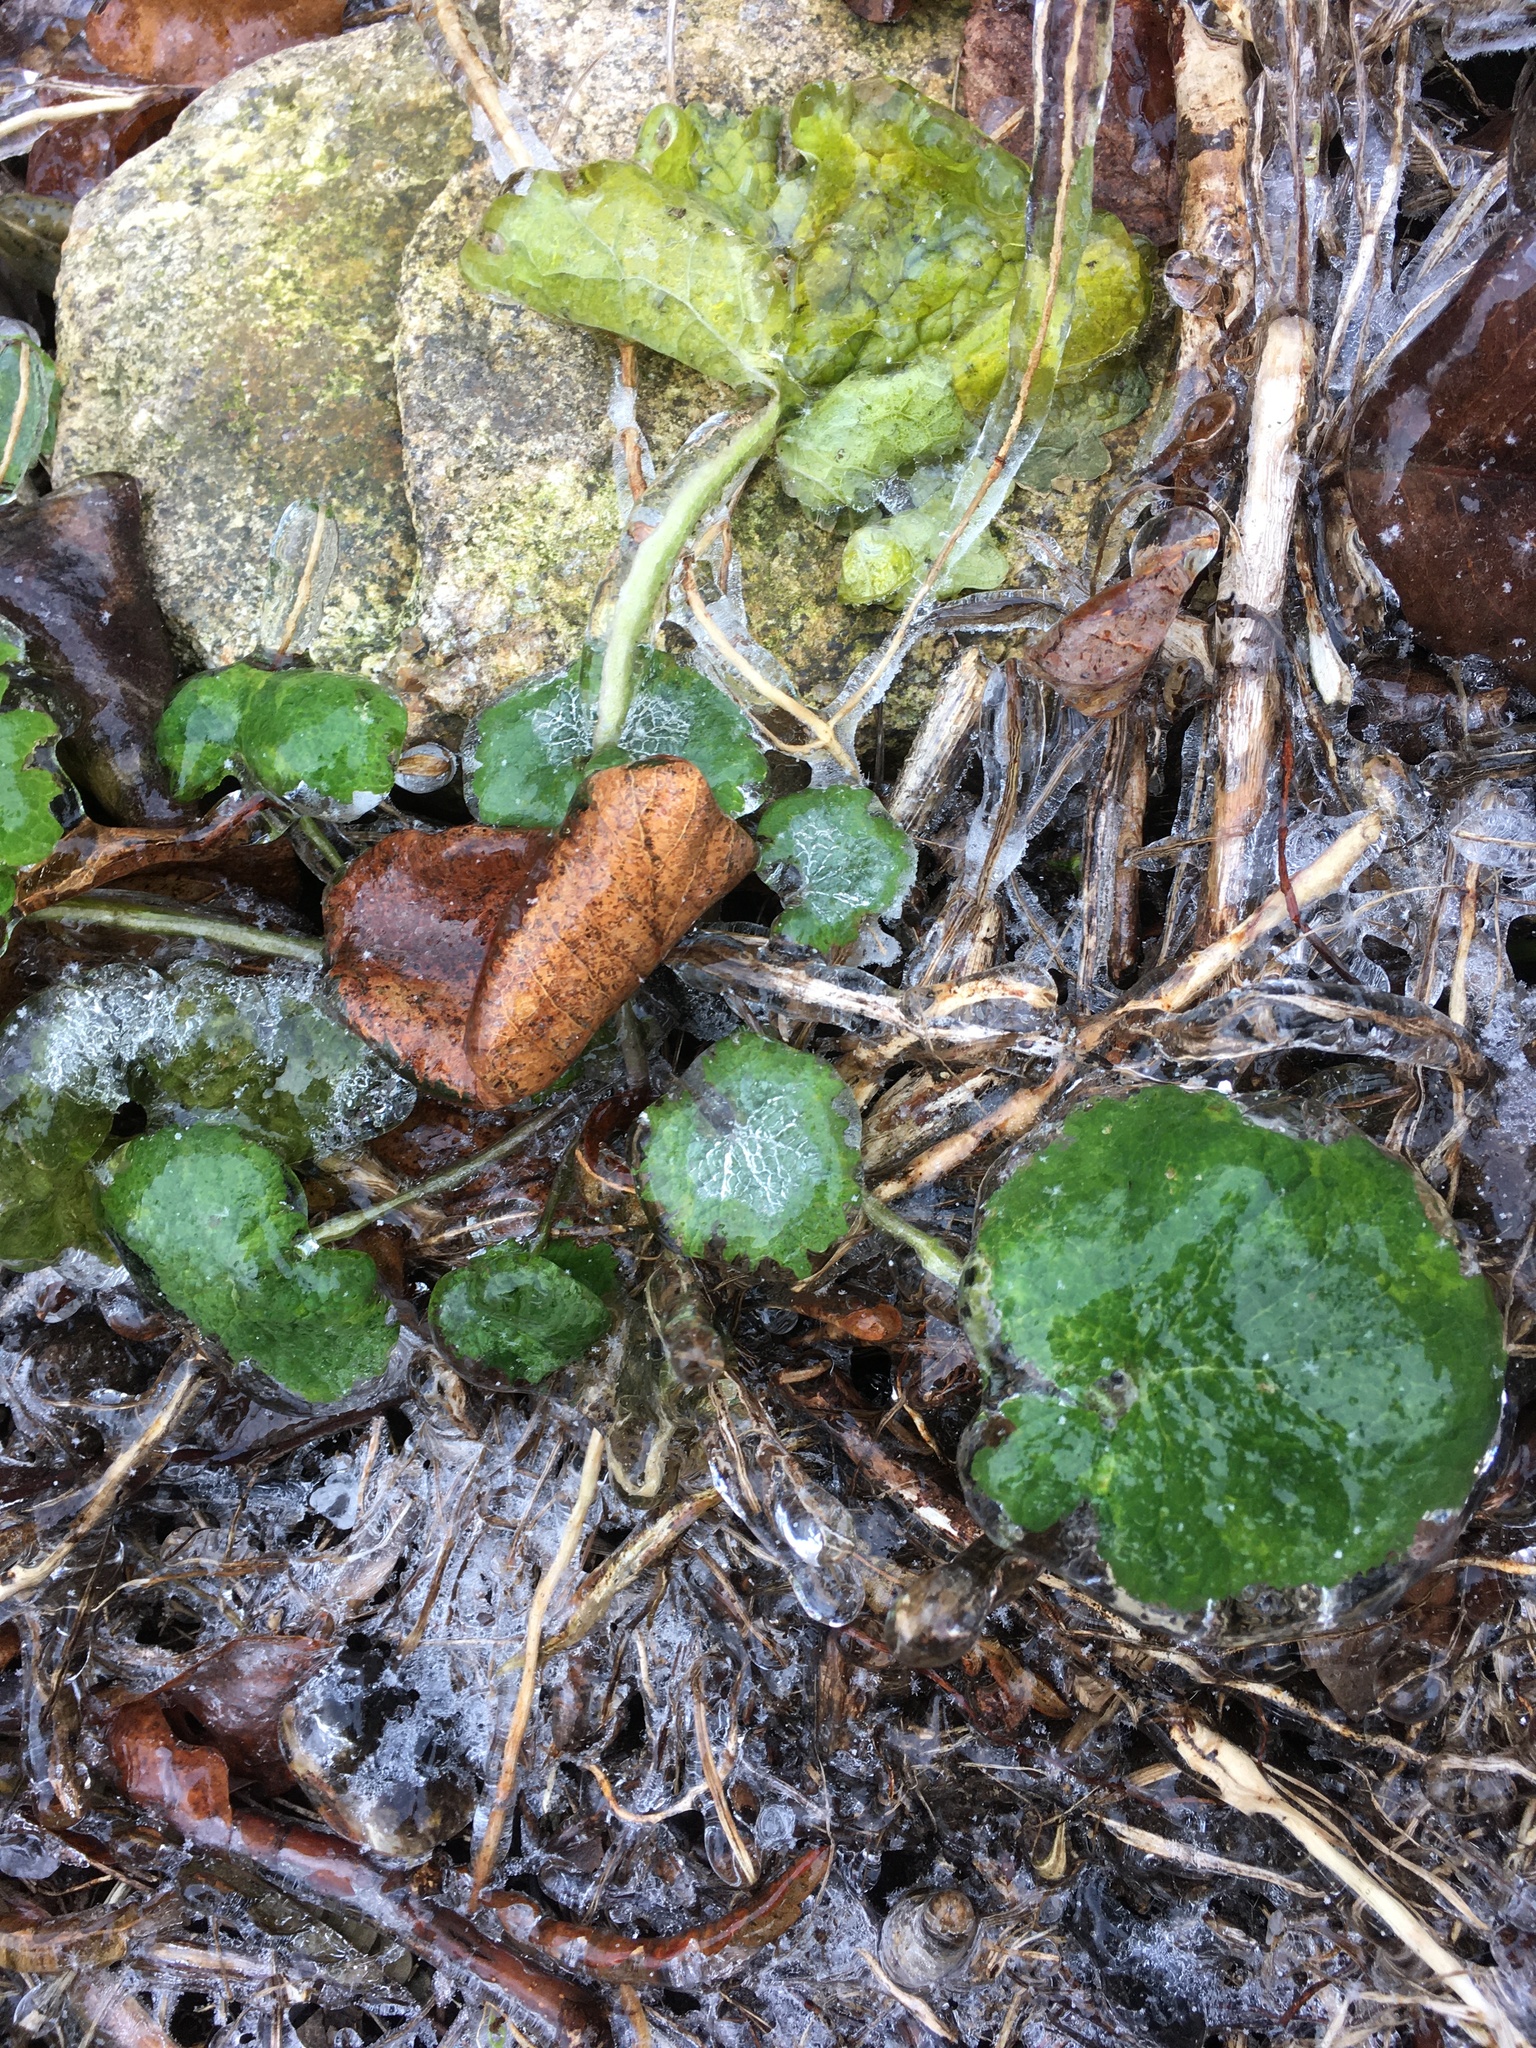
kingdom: Plantae
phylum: Tracheophyta
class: Magnoliopsida
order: Brassicales
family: Brassicaceae
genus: Alliaria
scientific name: Alliaria petiolata
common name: Garlic mustard
